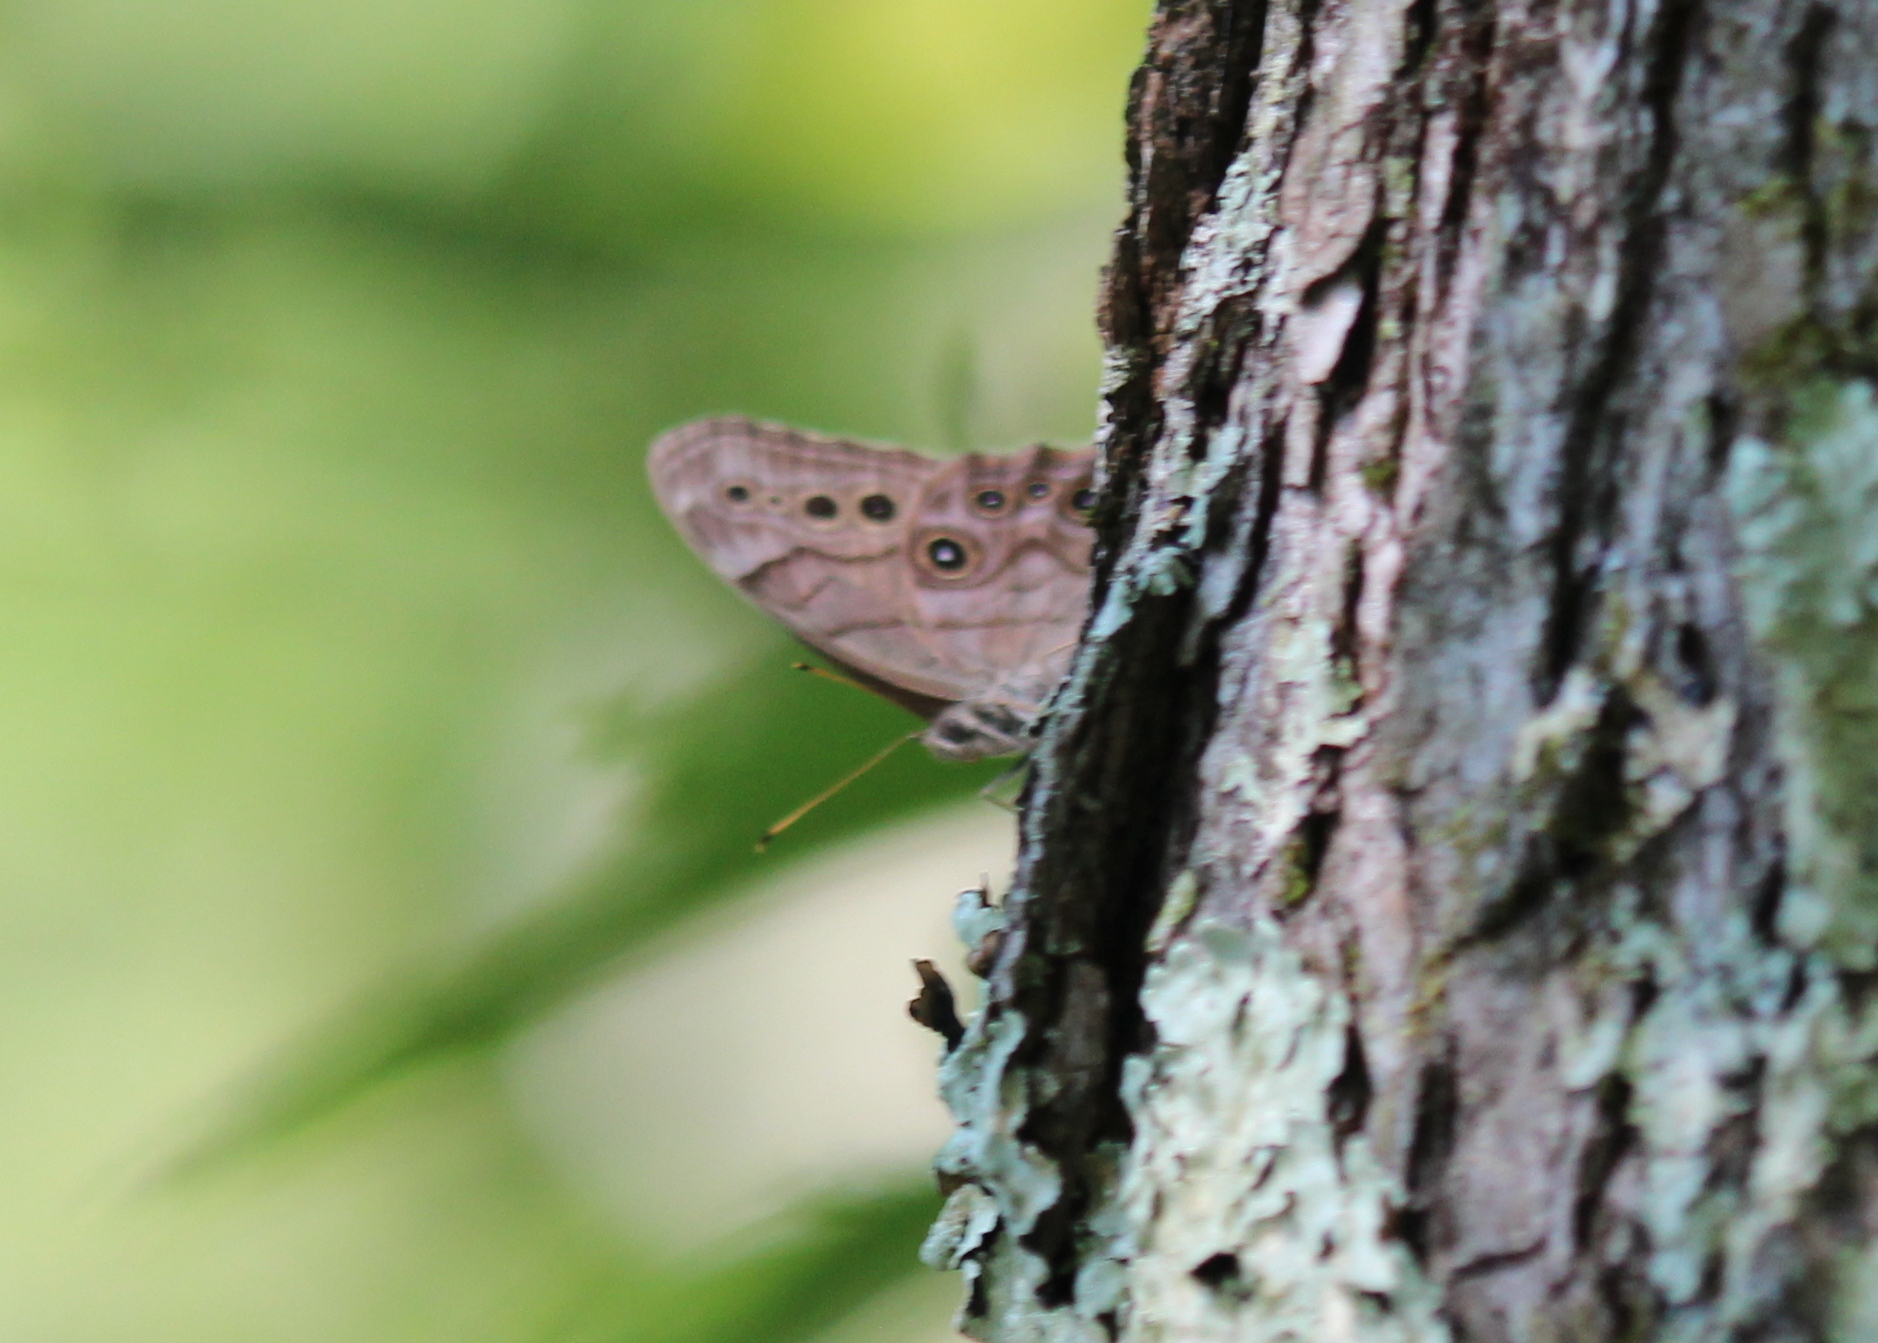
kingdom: Animalia
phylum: Arthropoda
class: Insecta
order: Lepidoptera
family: Nymphalidae
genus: Lethe
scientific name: Lethe anthedon
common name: Northern pearly-eye
